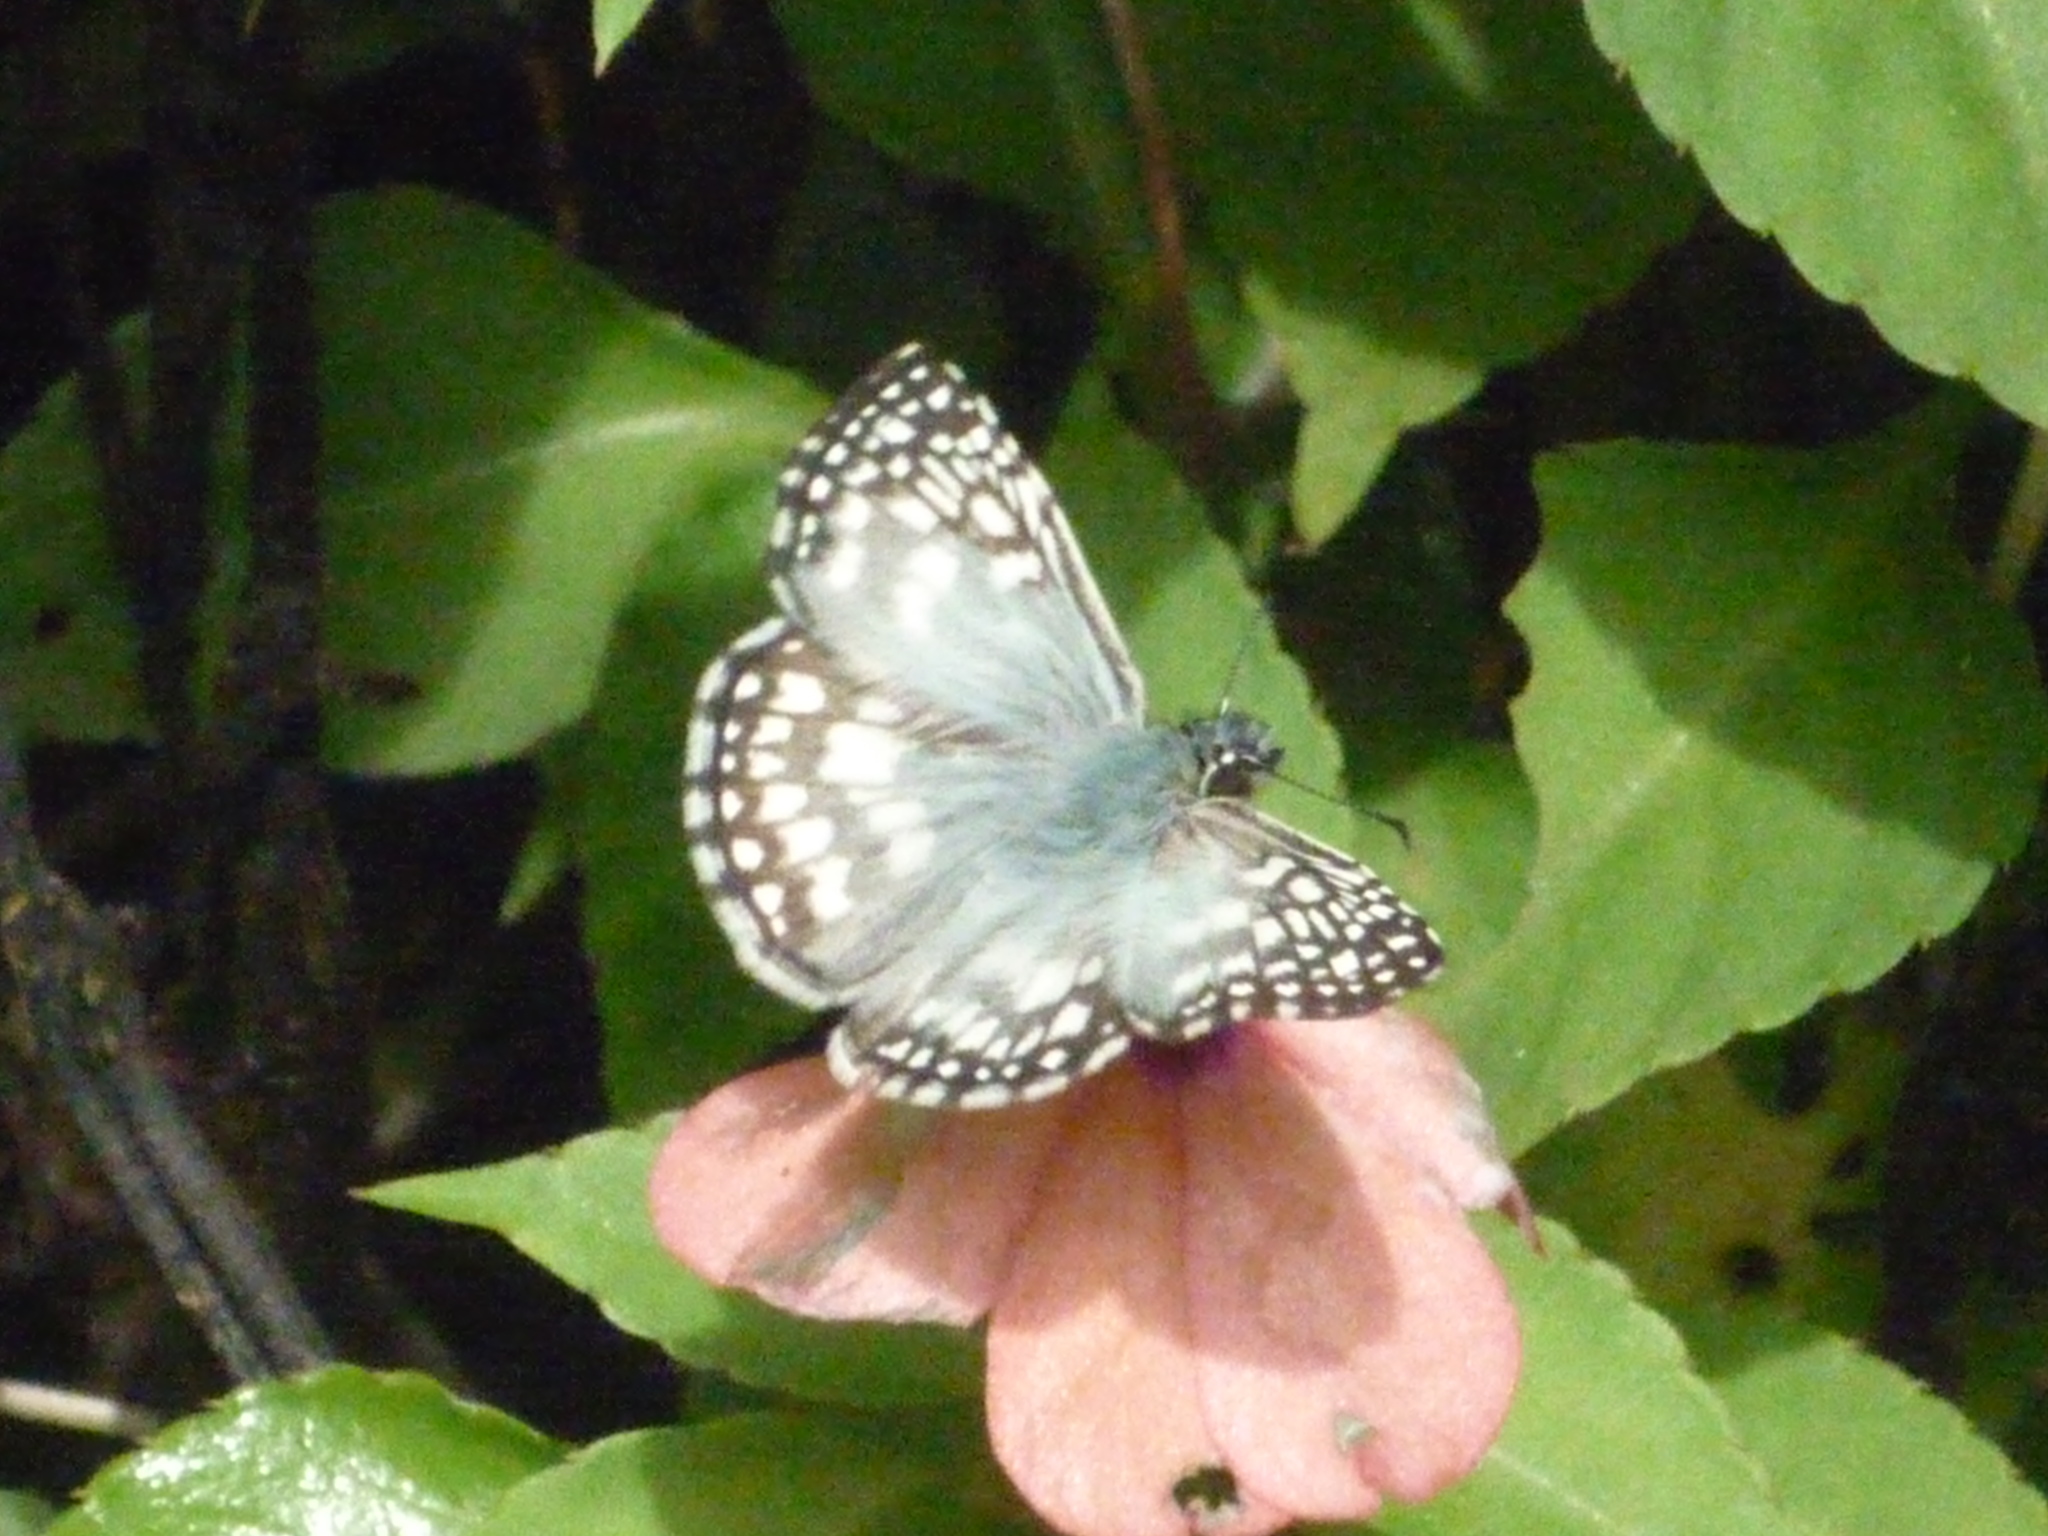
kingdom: Animalia
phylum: Arthropoda
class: Insecta
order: Lepidoptera
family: Hesperiidae
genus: Pyrgus
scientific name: Pyrgus oileus
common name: Tropical checkered-skipper
